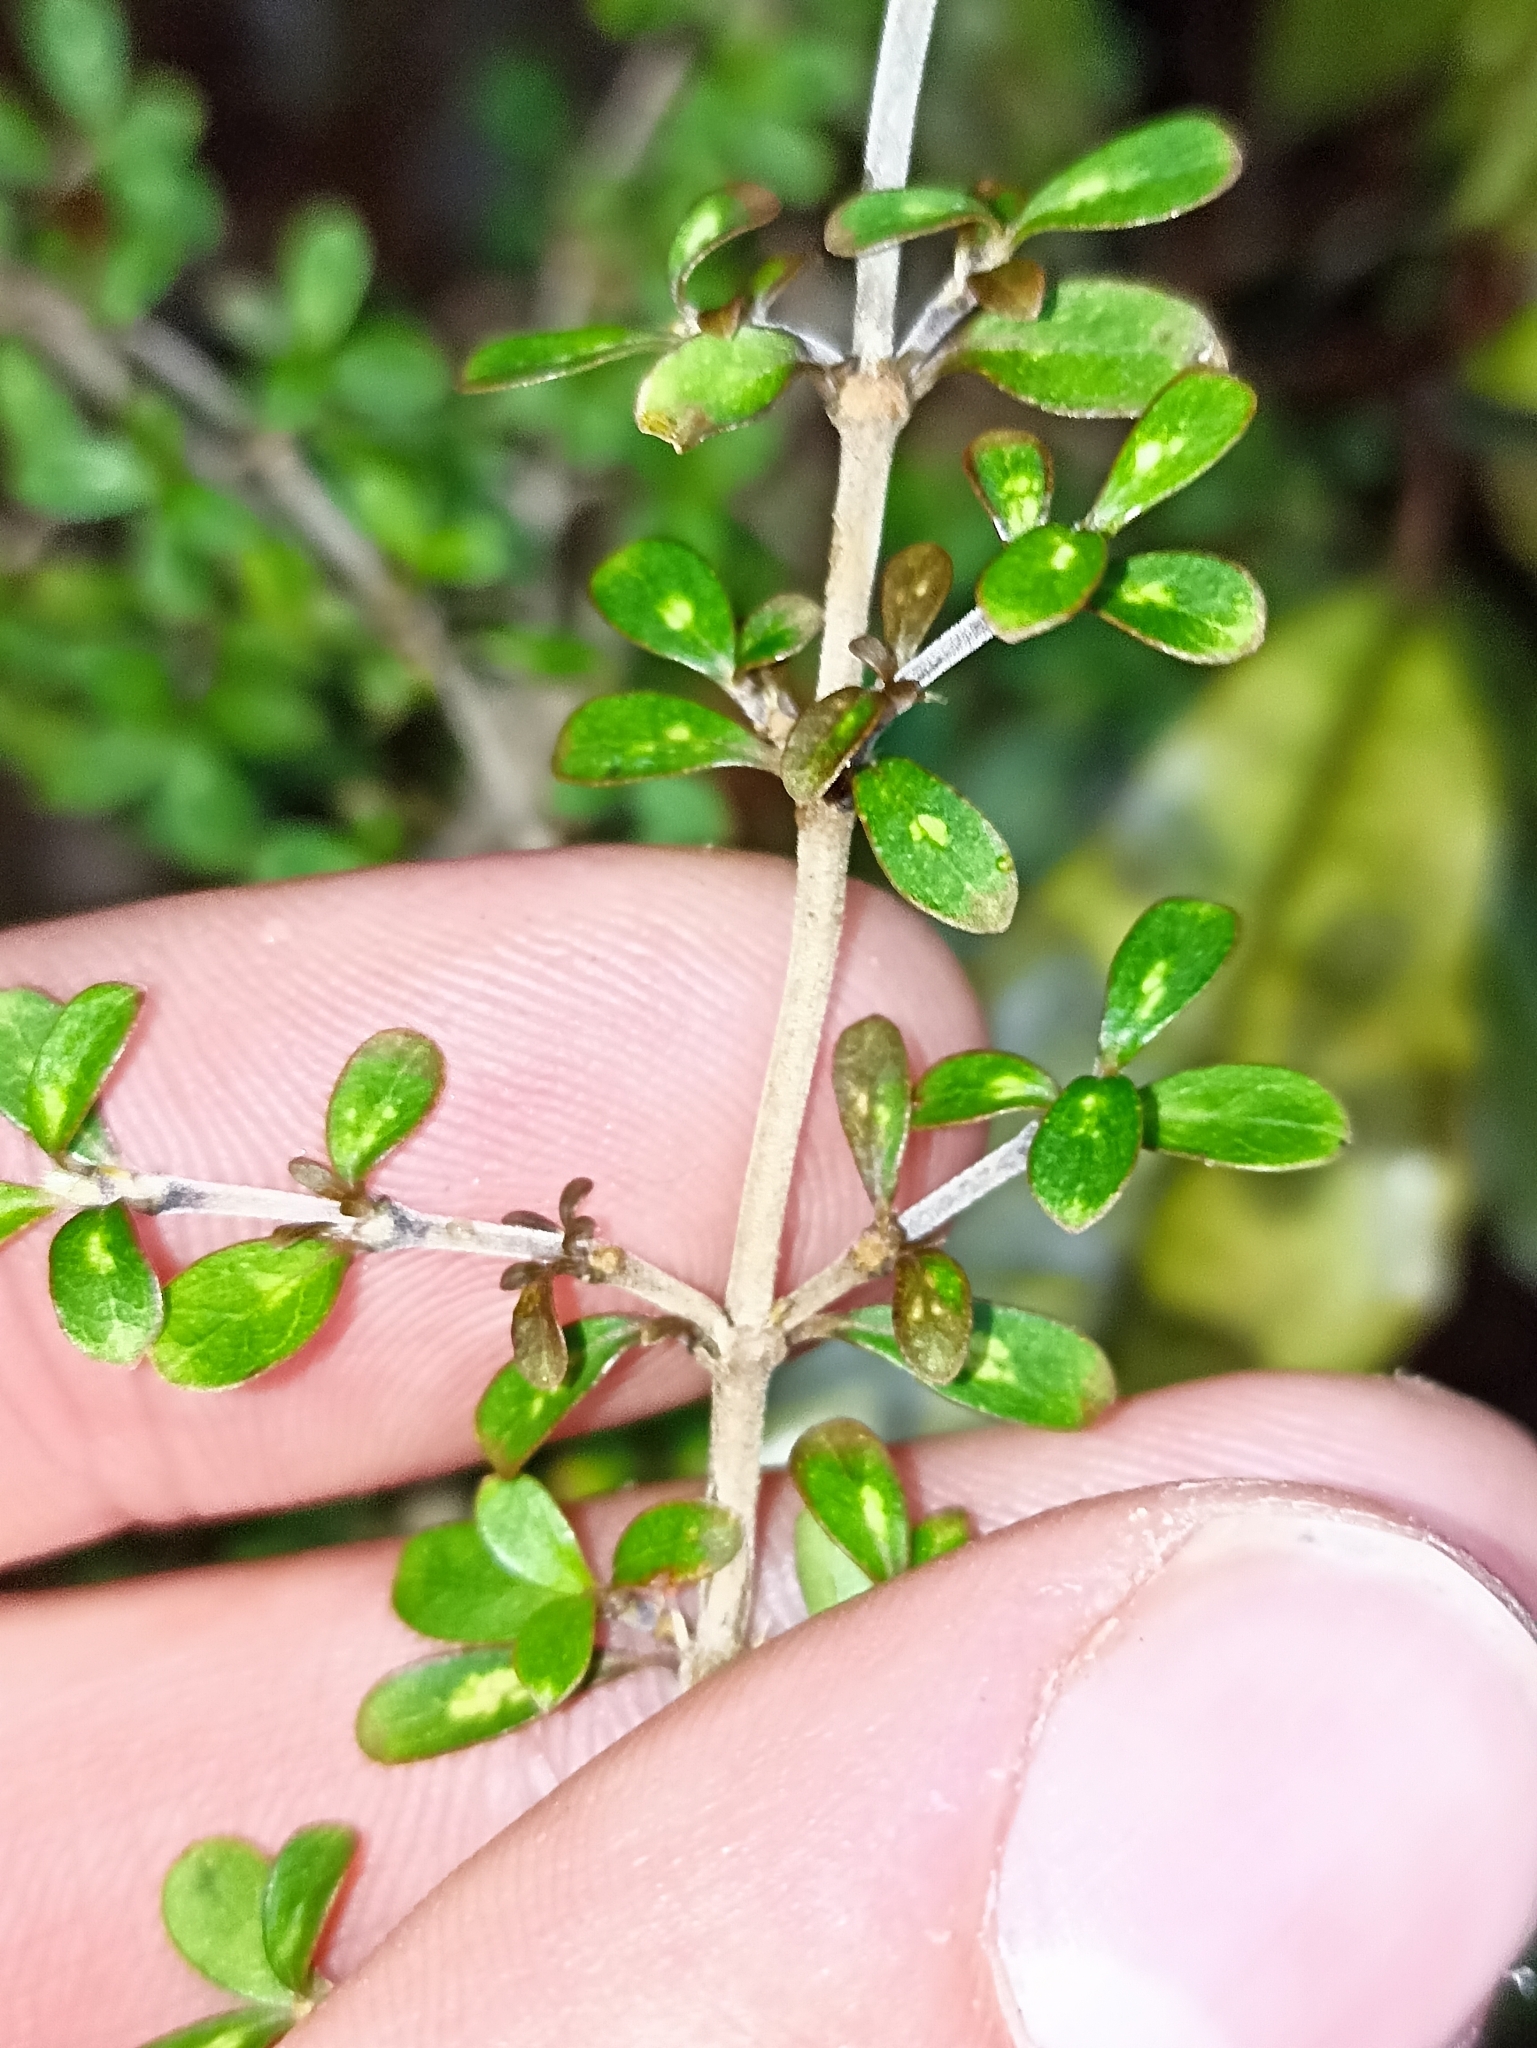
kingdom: Plantae
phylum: Tracheophyta
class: Magnoliopsida
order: Gentianales
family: Rubiaceae
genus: Coprosma
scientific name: Coprosma dumosa
